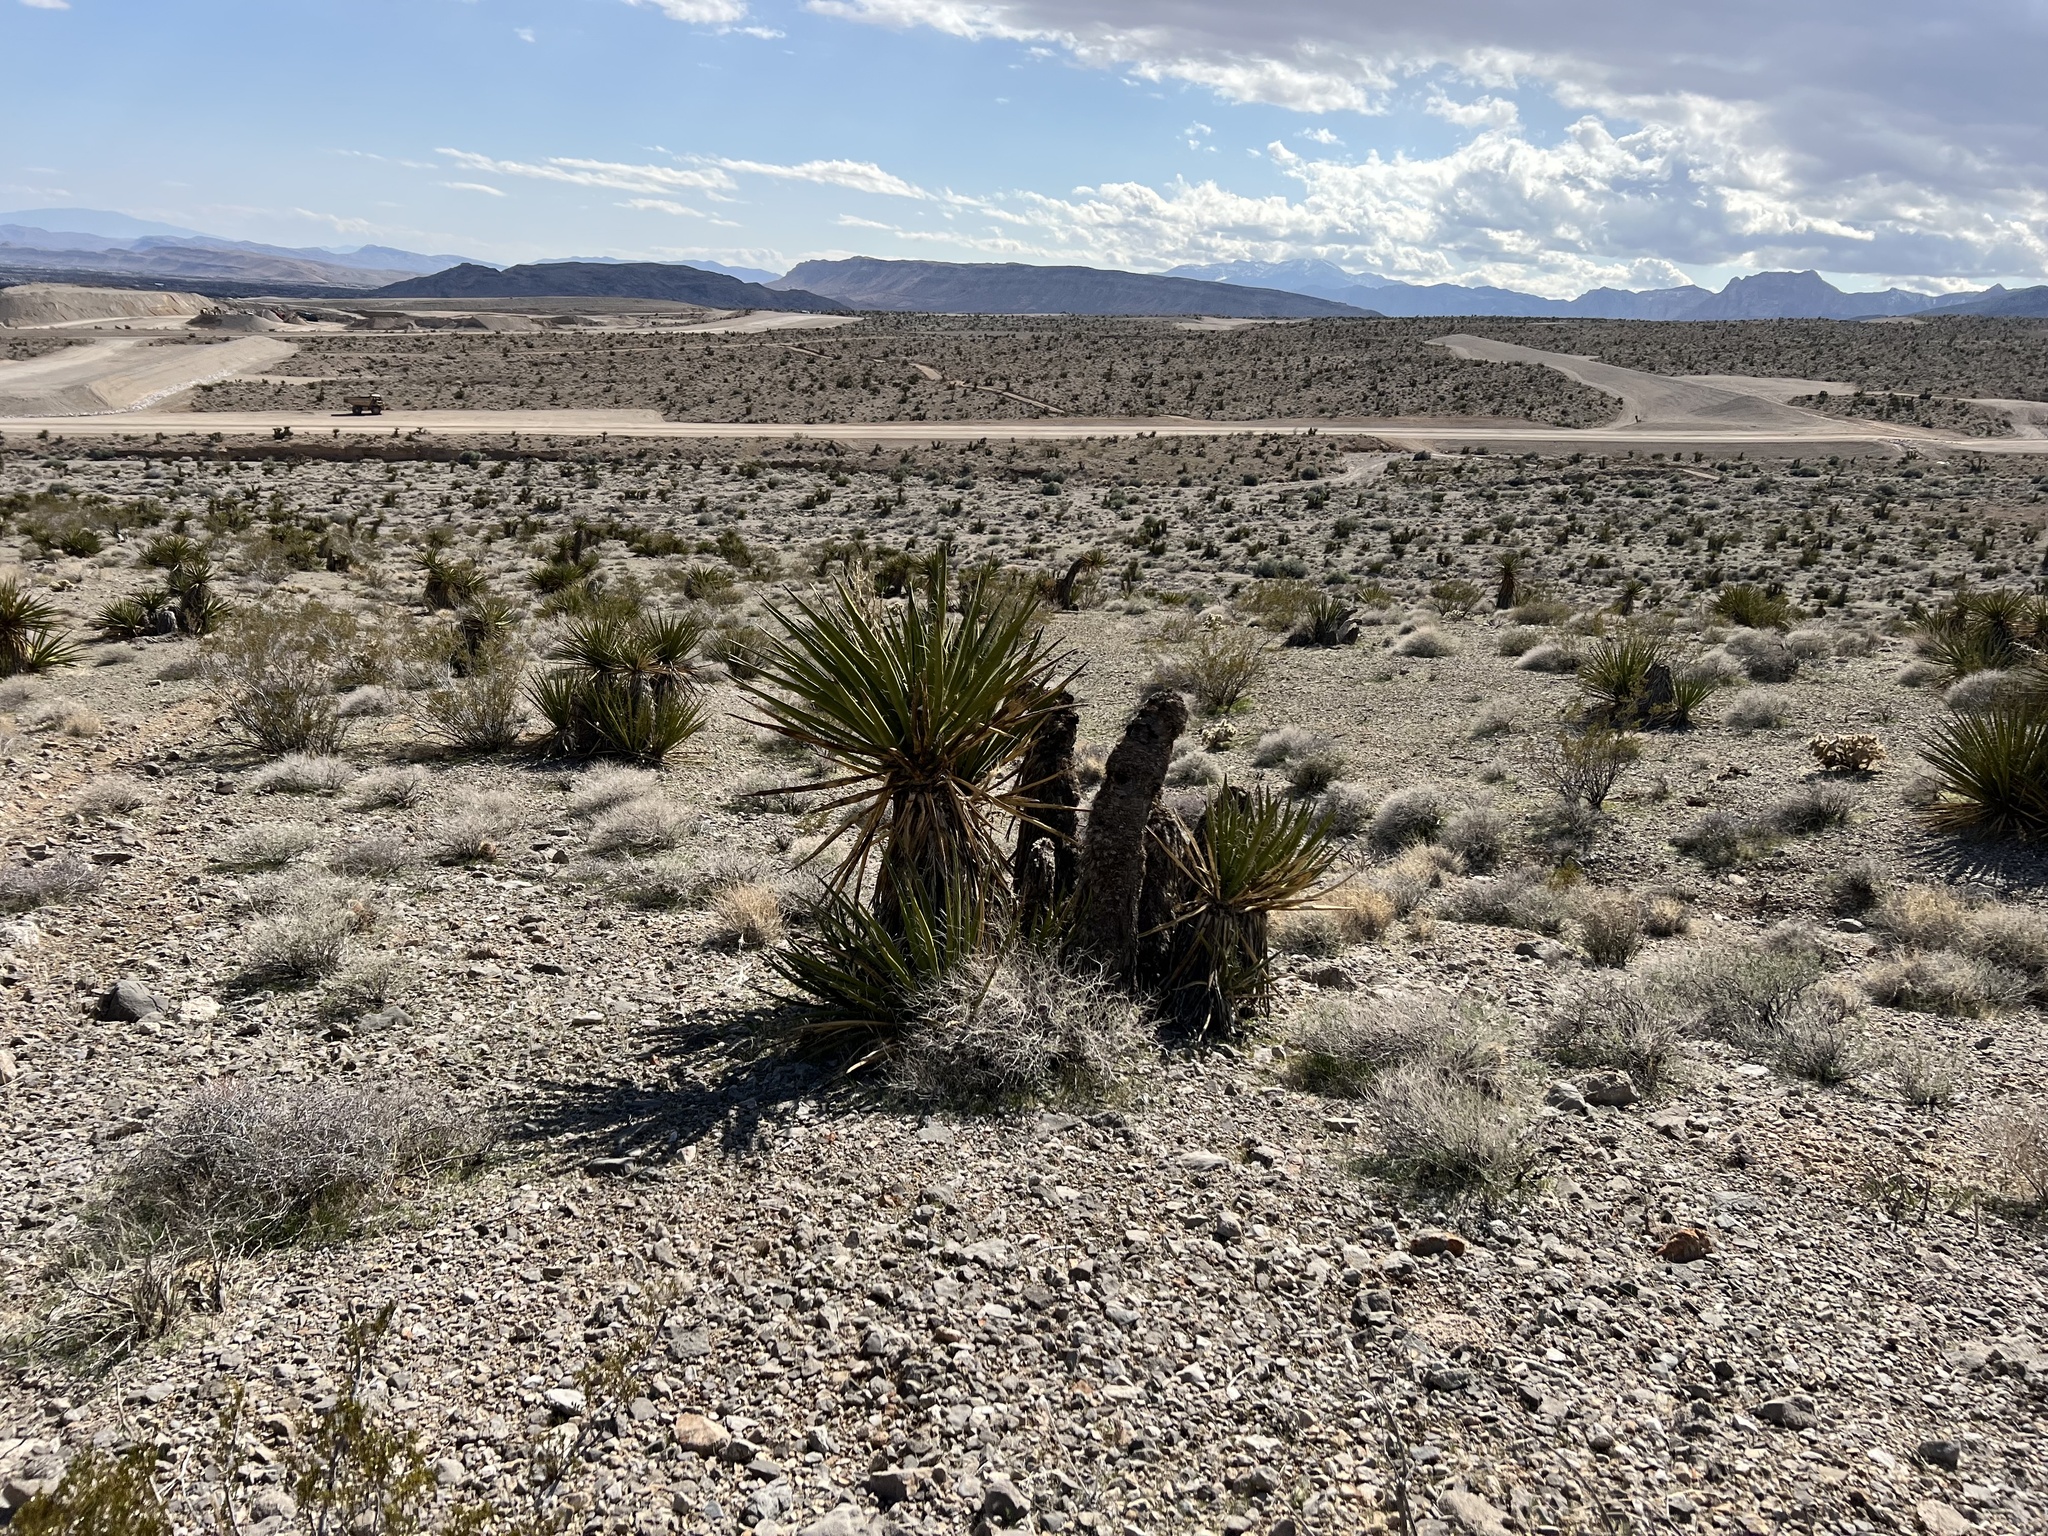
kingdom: Plantae
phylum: Tracheophyta
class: Liliopsida
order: Asparagales
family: Asparagaceae
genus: Yucca
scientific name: Yucca schidigera
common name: Mojave yucca
